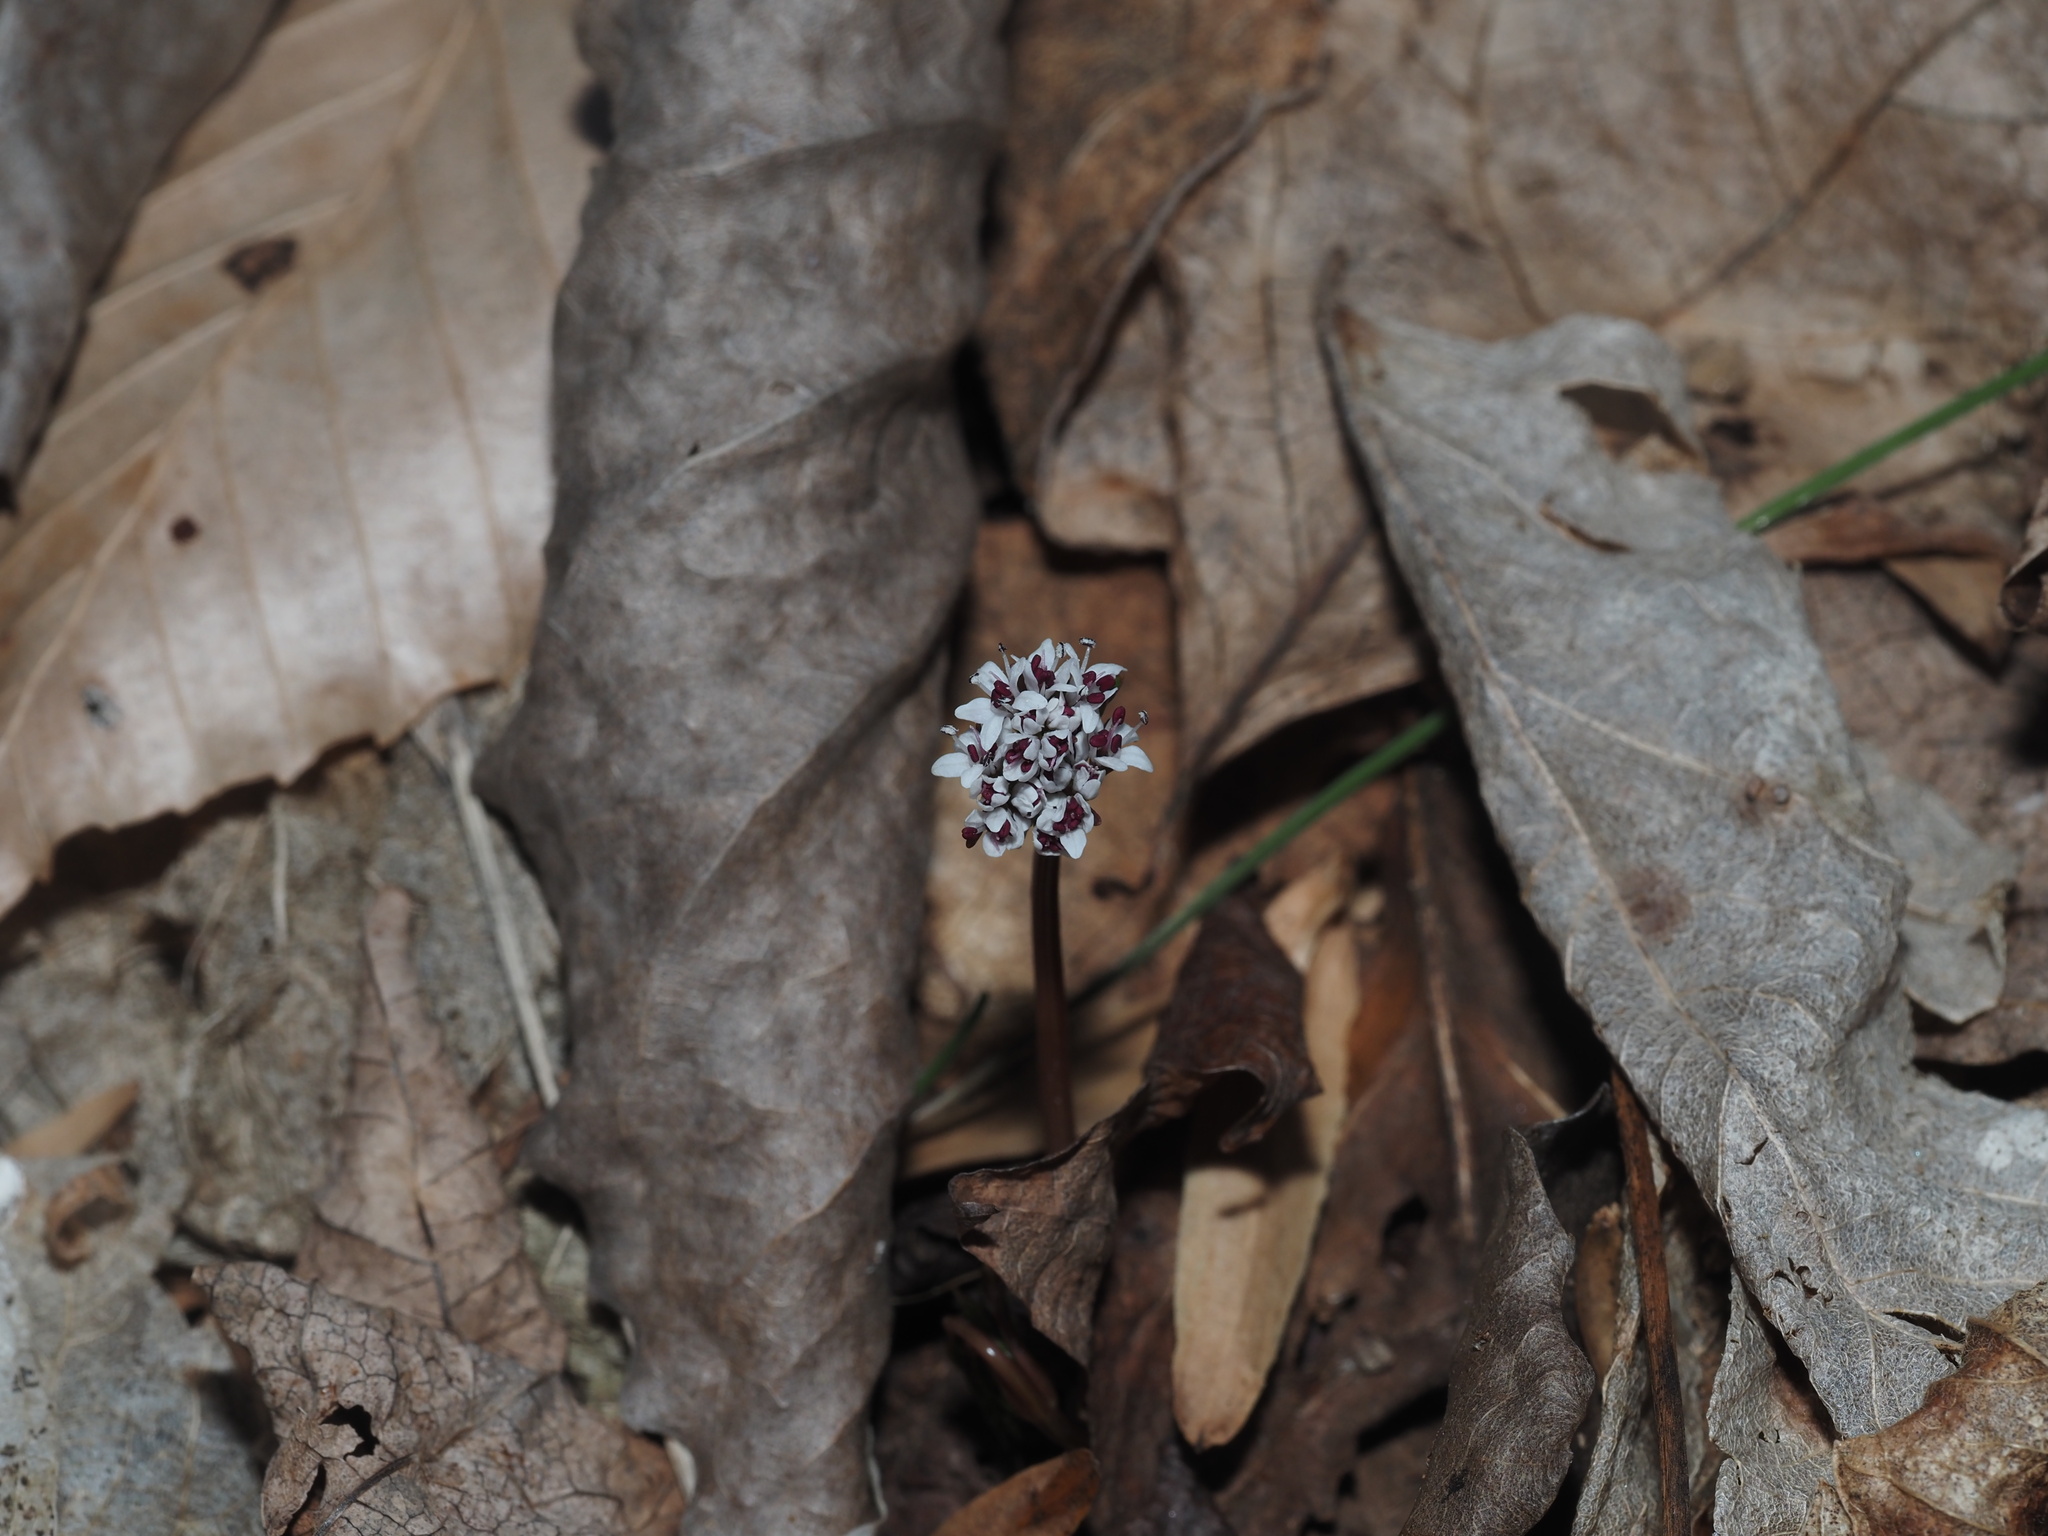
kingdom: Plantae
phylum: Tracheophyta
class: Magnoliopsida
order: Apiales
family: Apiaceae
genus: Erigenia
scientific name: Erigenia bulbosa
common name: Pepper-and-salt
